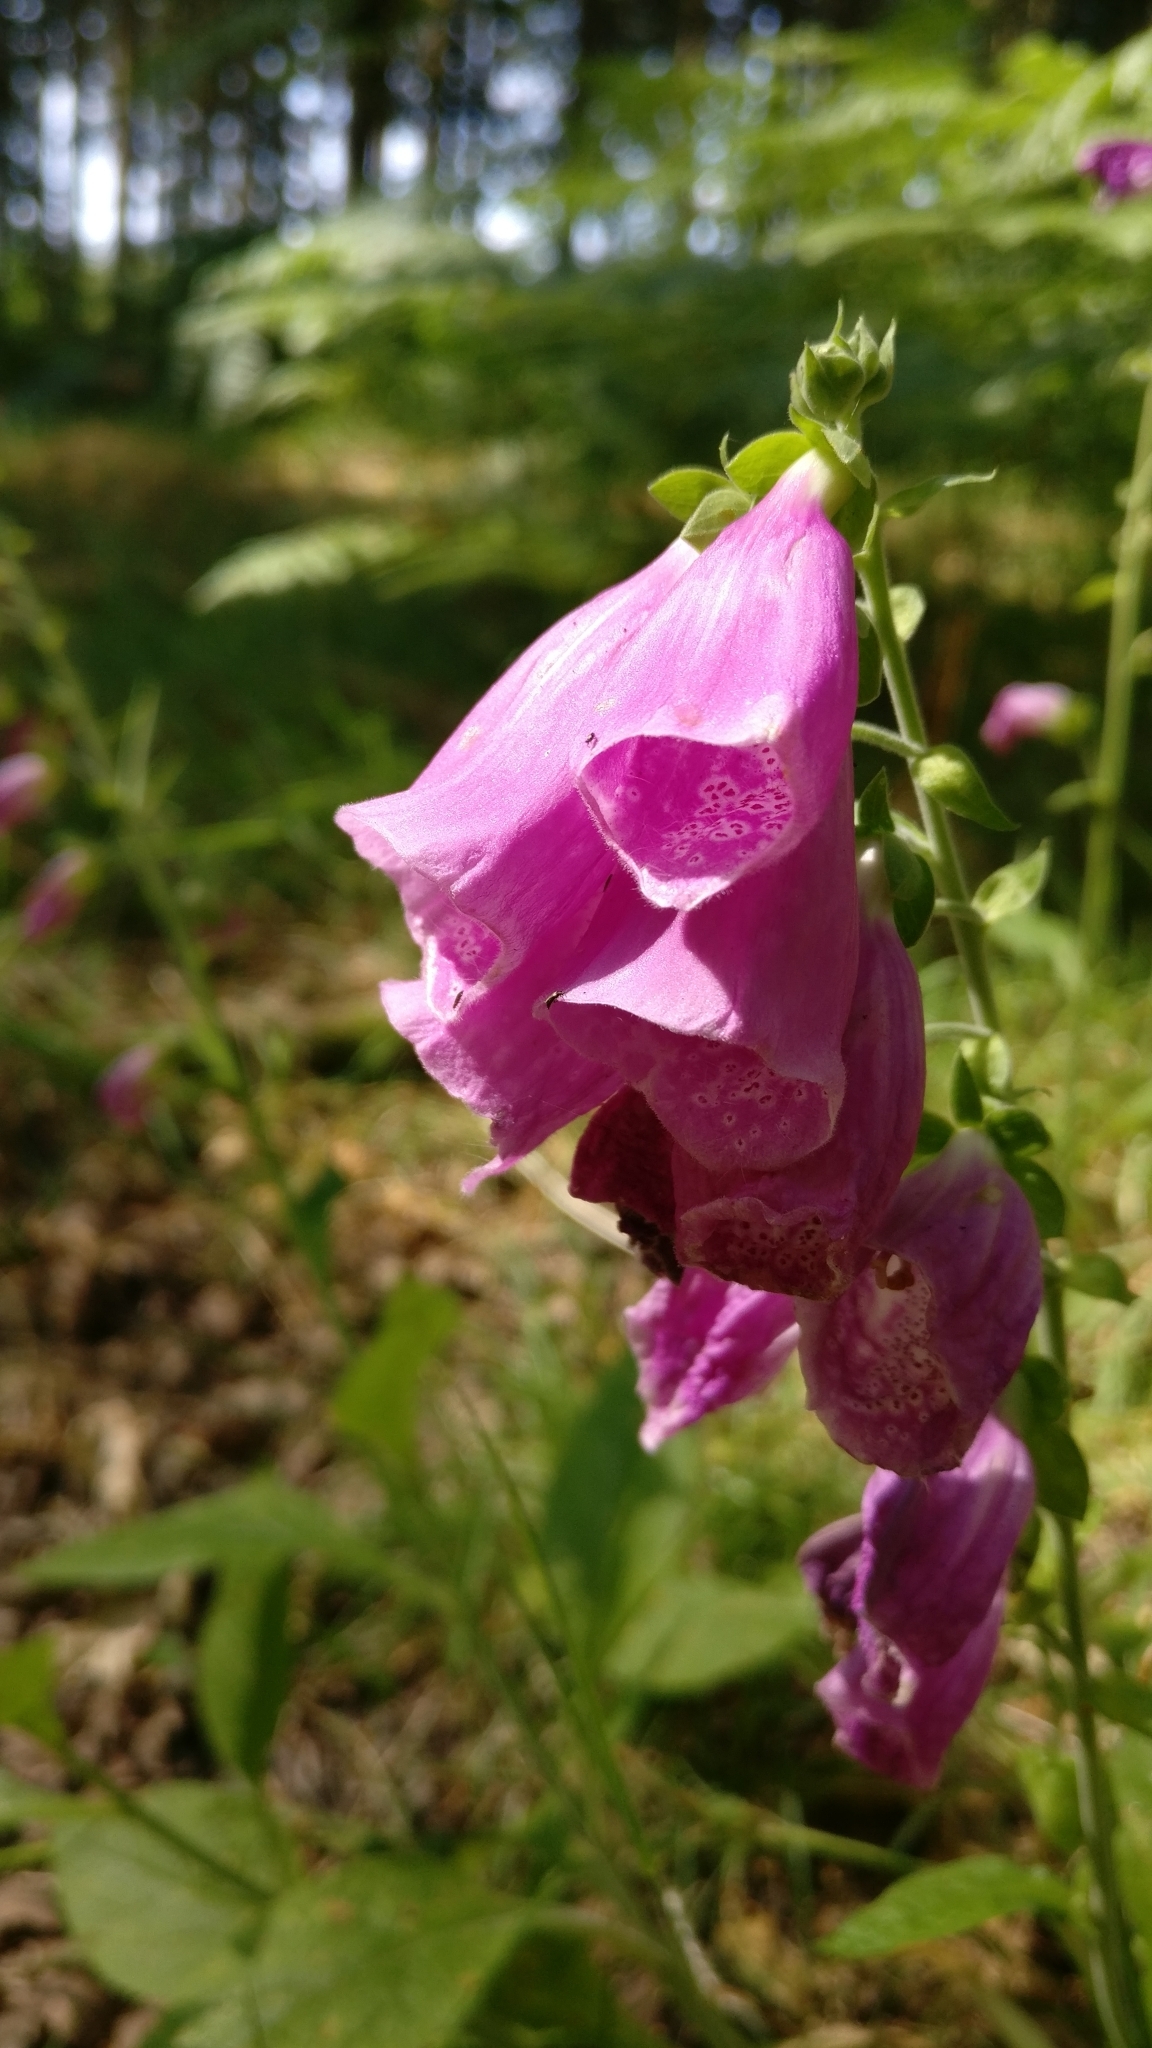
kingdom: Plantae
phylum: Tracheophyta
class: Magnoliopsida
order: Lamiales
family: Plantaginaceae
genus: Digitalis
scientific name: Digitalis purpurea
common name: Foxglove
